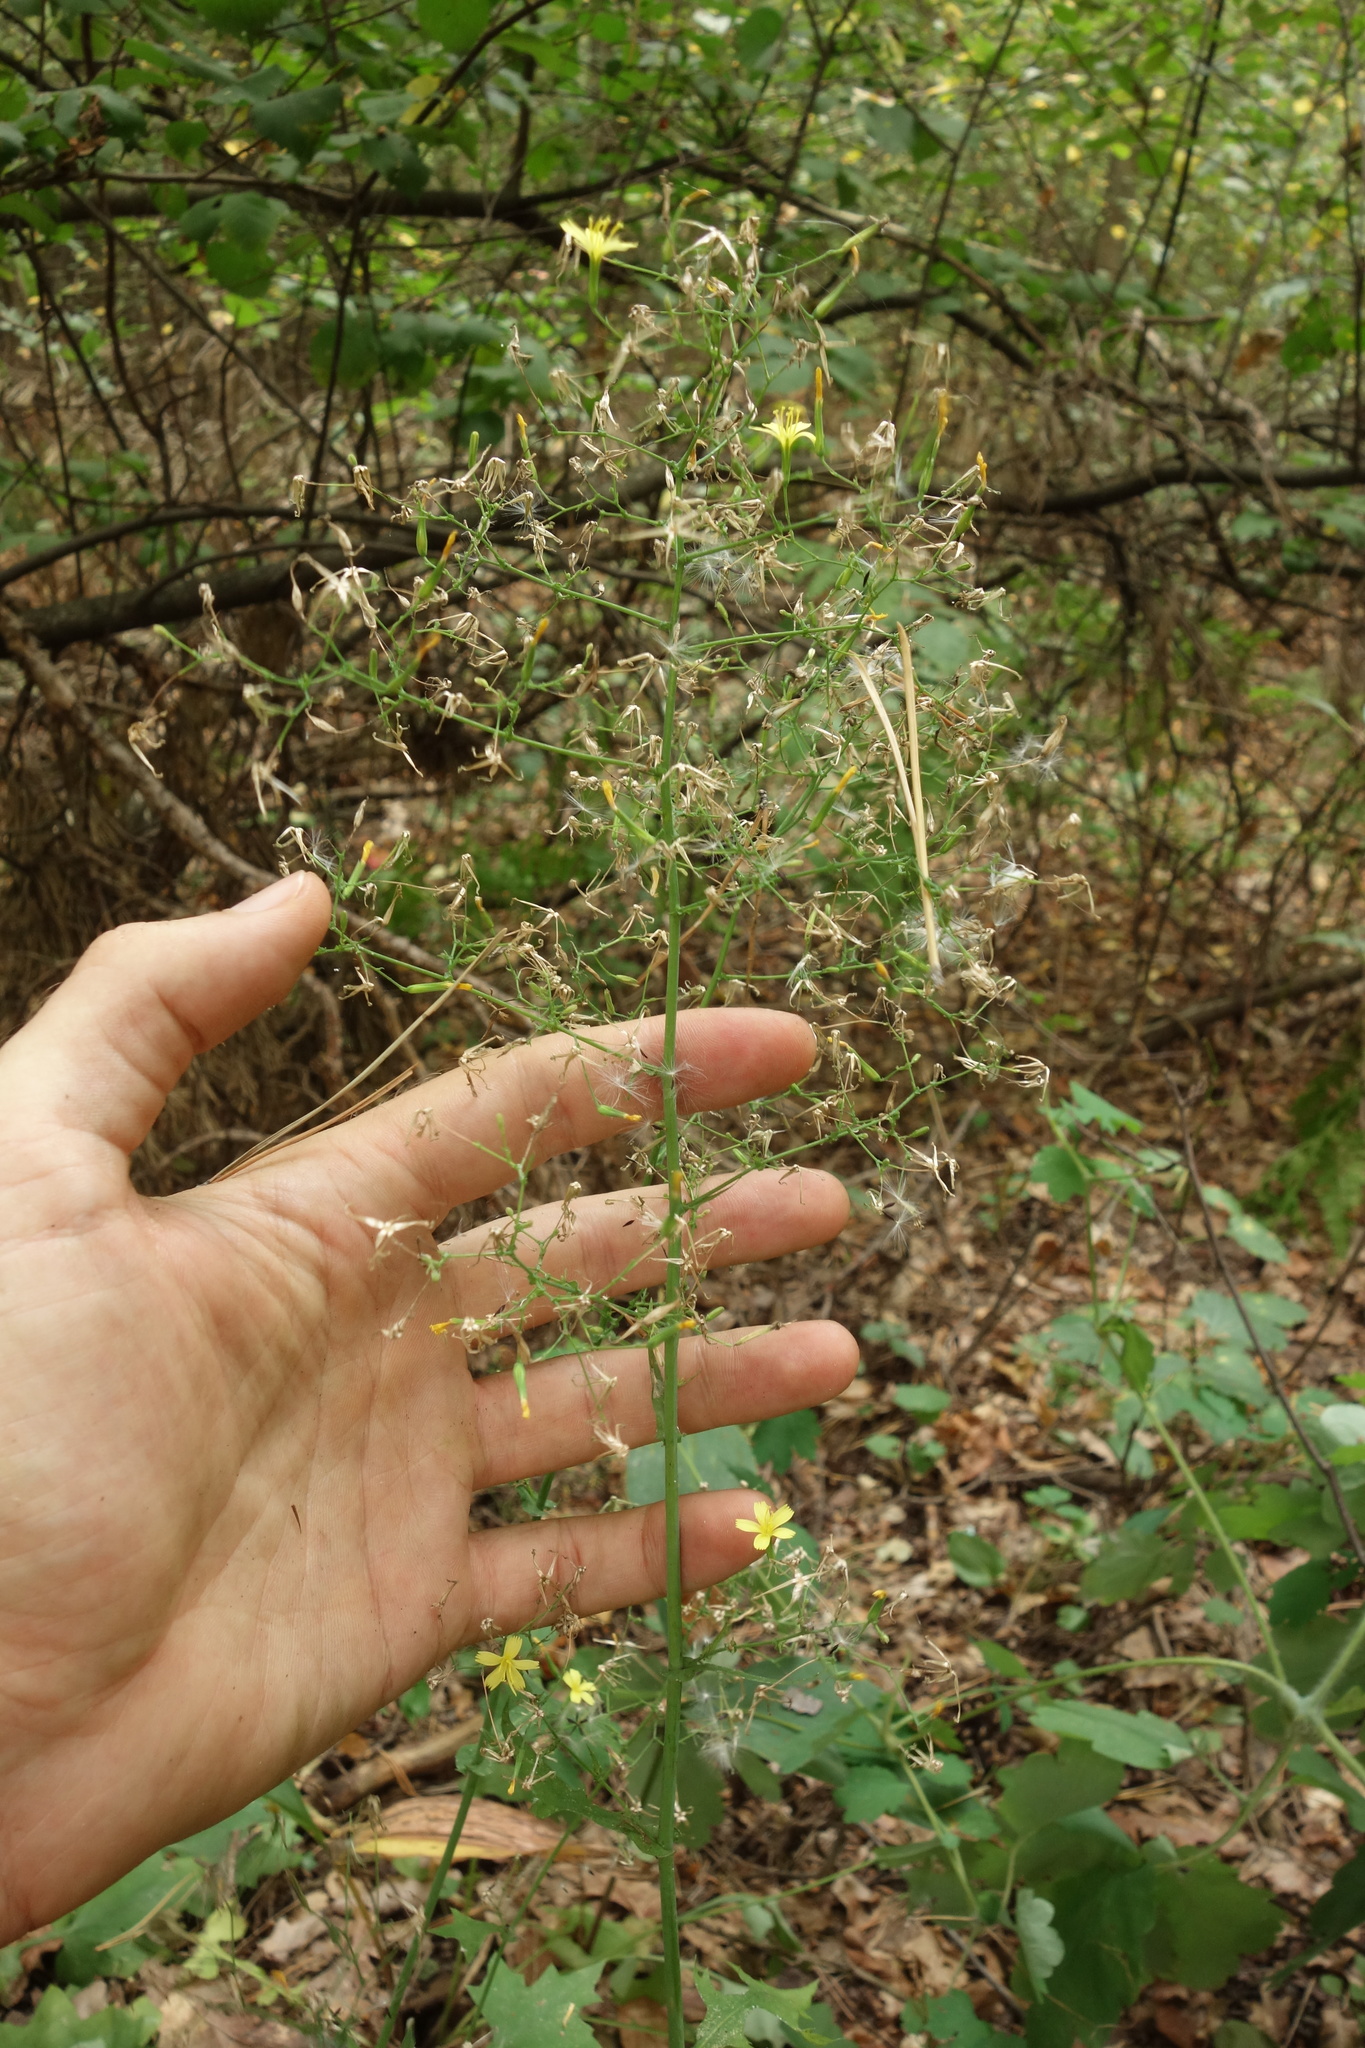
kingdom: Plantae
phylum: Tracheophyta
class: Magnoliopsida
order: Asterales
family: Asteraceae
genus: Mycelis
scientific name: Mycelis muralis
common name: Wall lettuce
